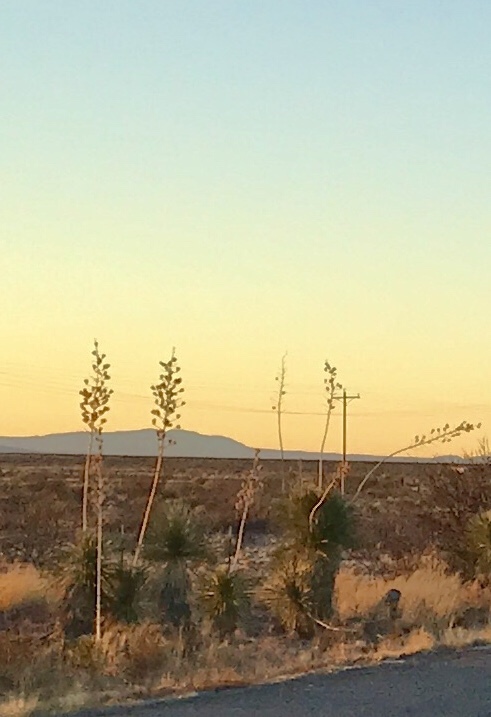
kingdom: Plantae
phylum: Tracheophyta
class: Liliopsida
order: Asparagales
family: Asparagaceae
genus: Yucca
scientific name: Yucca elata
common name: Palmella
